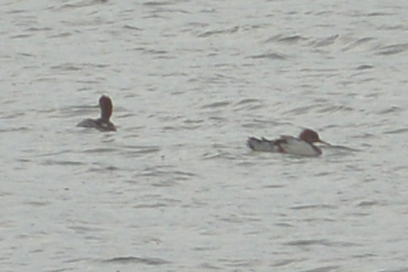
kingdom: Animalia
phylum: Chordata
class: Aves
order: Anseriformes
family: Anatidae
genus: Mergus
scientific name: Mergus serrator
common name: Red-breasted merganser
